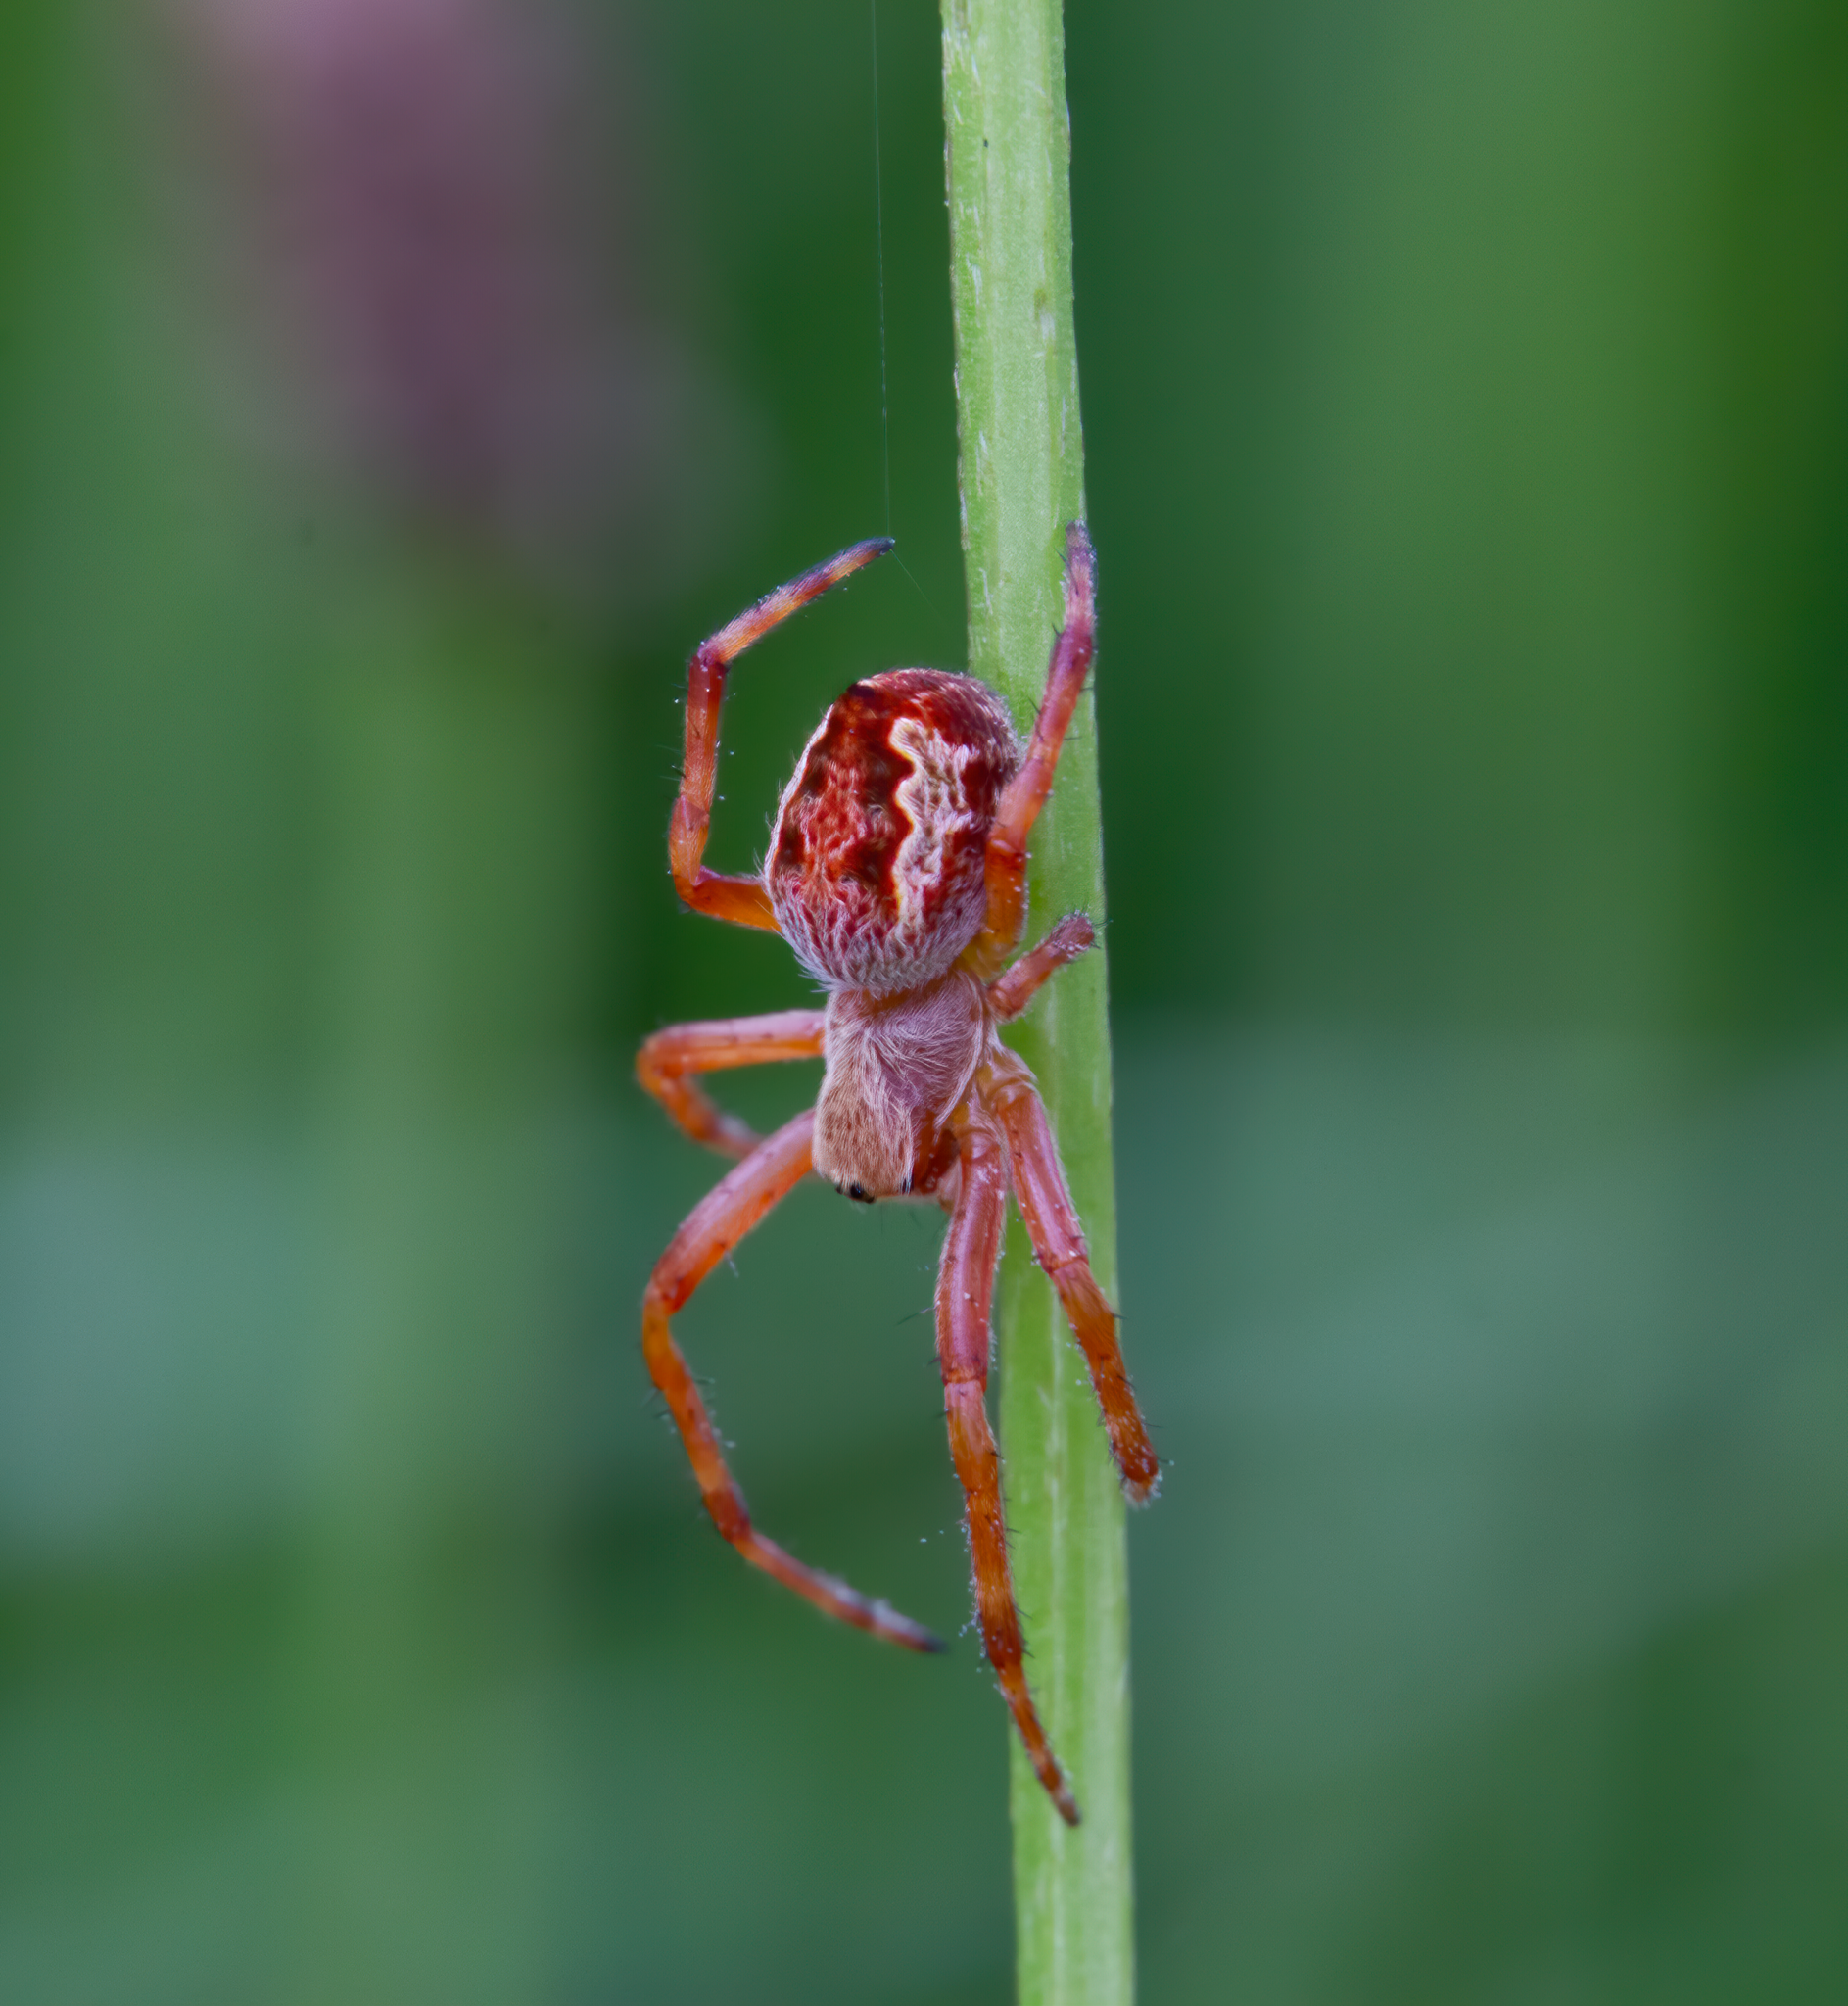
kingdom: Animalia
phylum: Arthropoda
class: Arachnida
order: Araneae
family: Araneidae
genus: Salsa
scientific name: Salsa fuliginata
